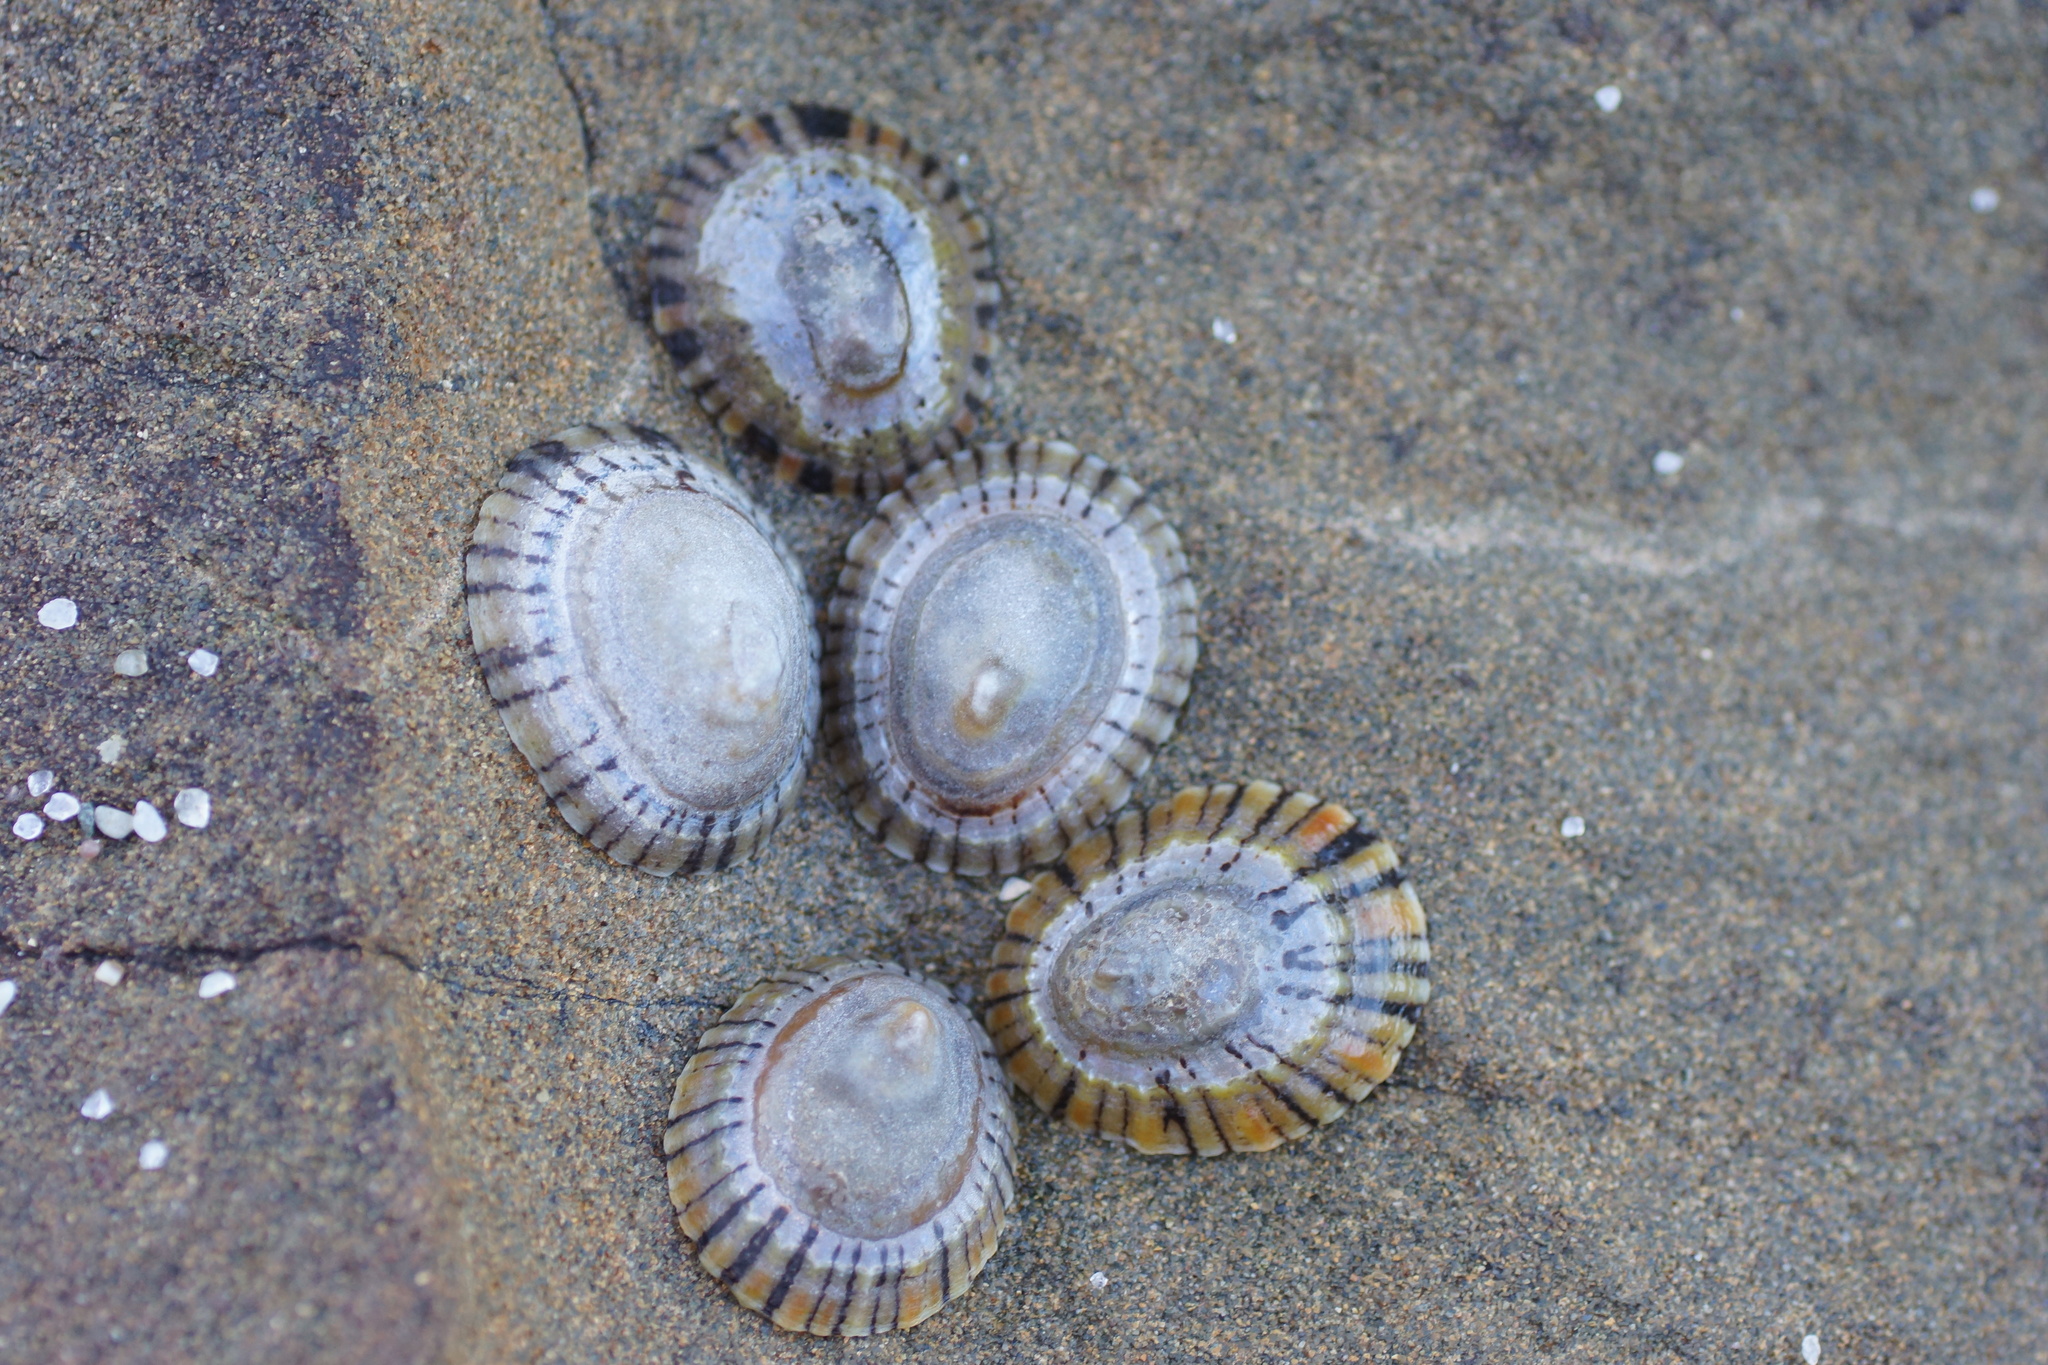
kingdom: Animalia
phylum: Mollusca
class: Gastropoda
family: Nacellidae
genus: Cellana
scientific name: Cellana tramoserica
